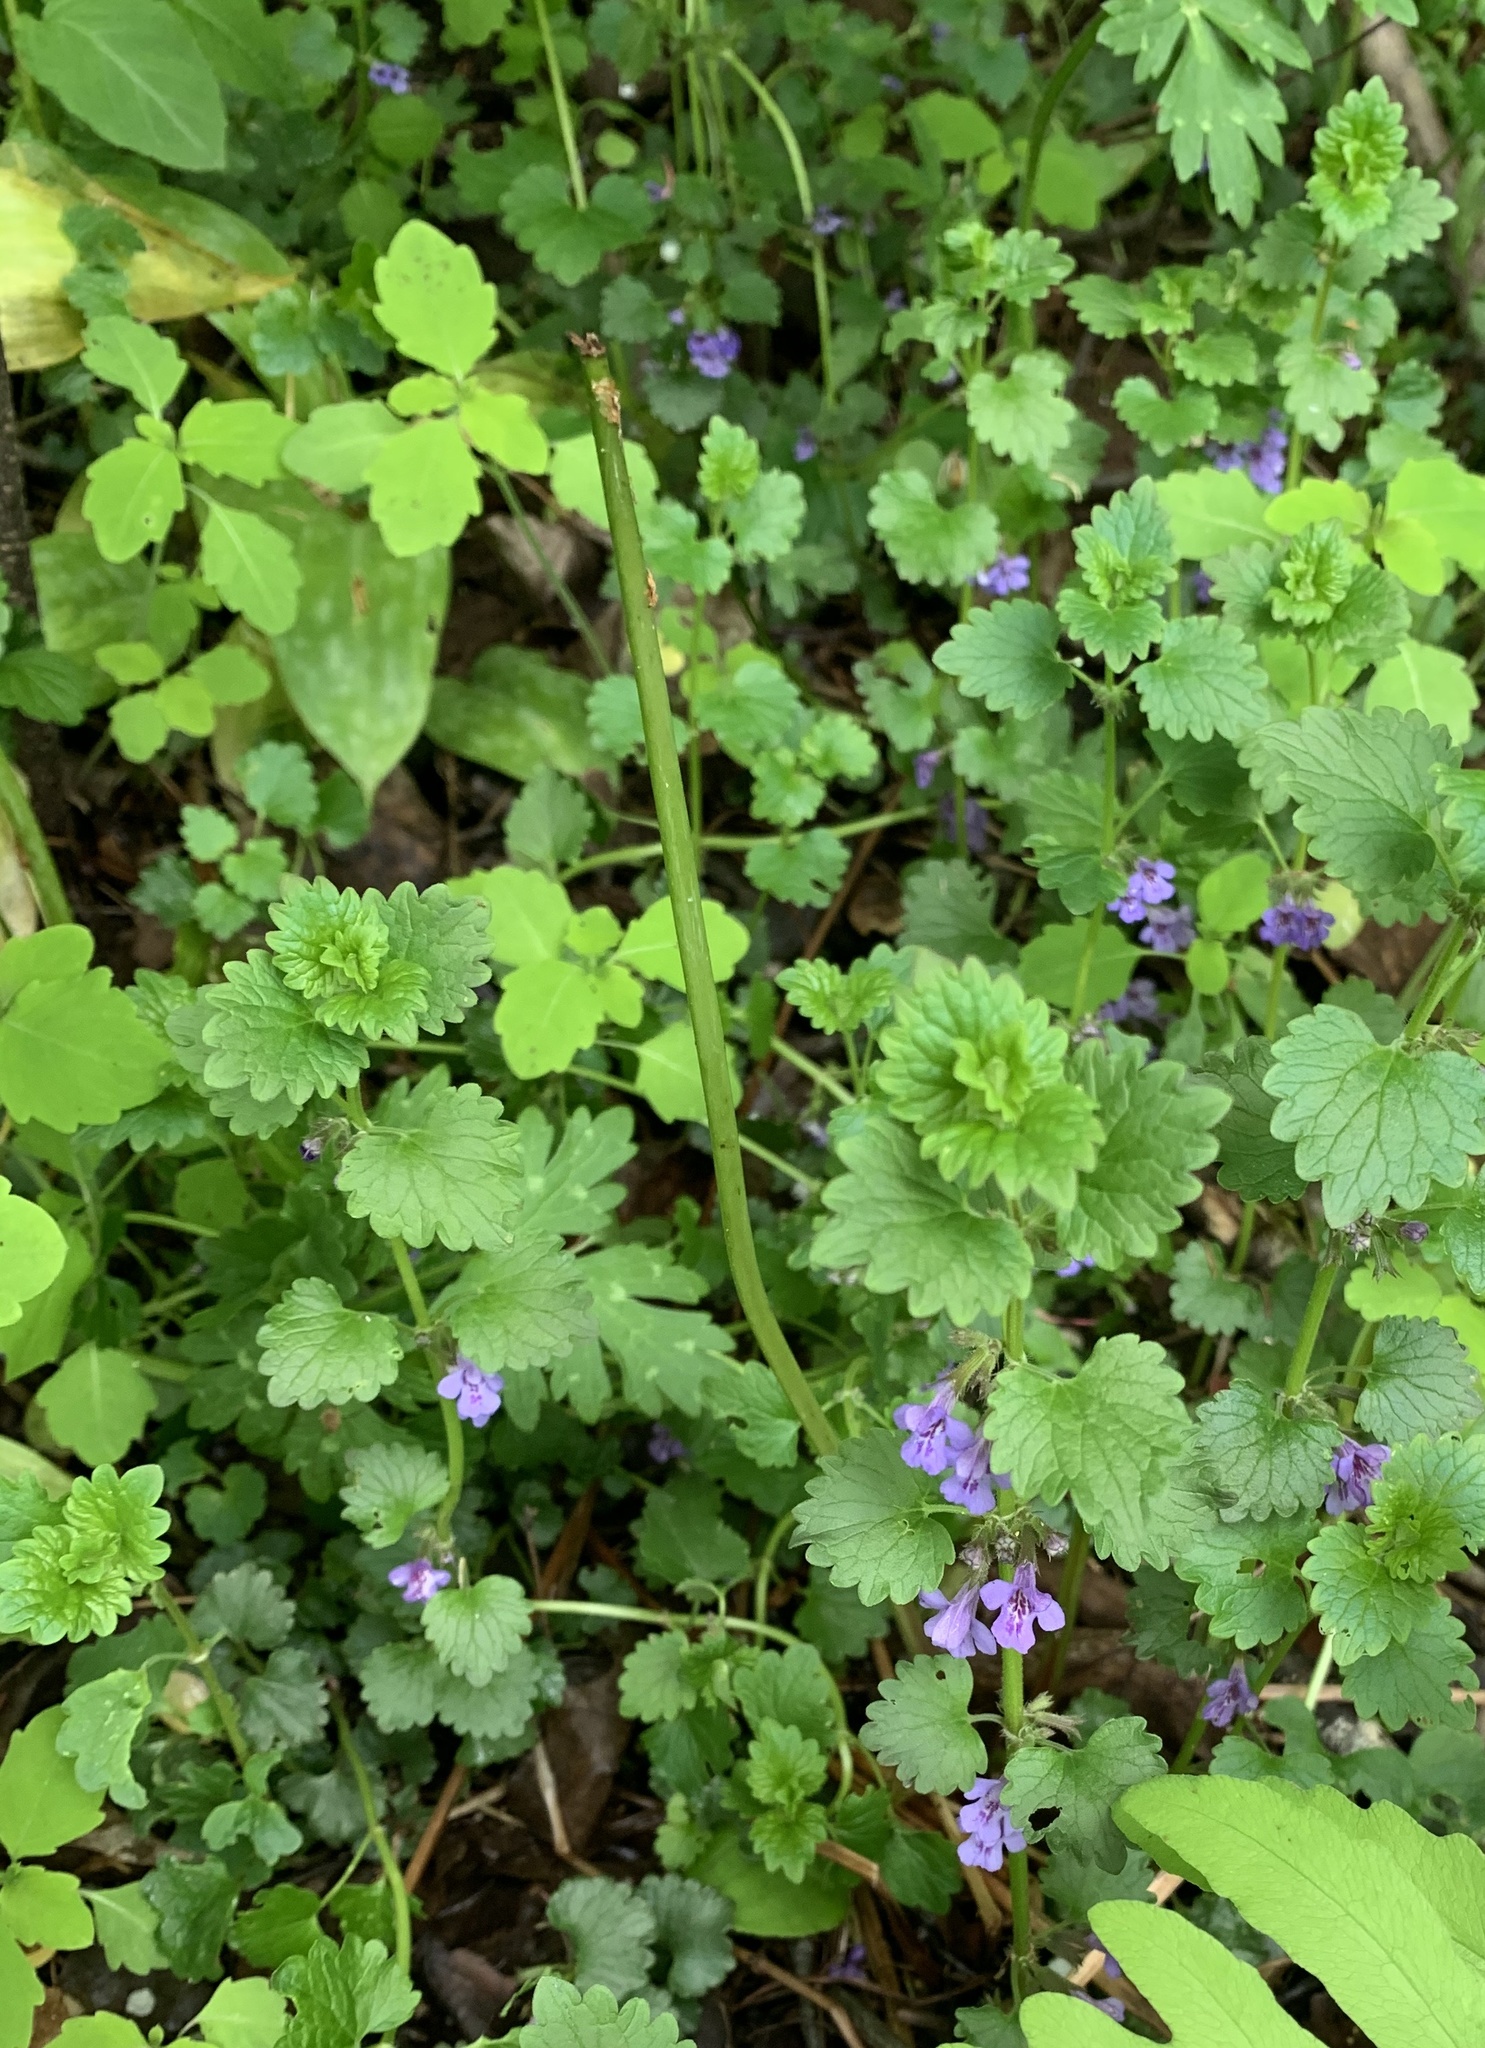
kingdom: Plantae
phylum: Tracheophyta
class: Magnoliopsida
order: Lamiales
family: Lamiaceae
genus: Glechoma
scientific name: Glechoma hederacea
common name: Ground ivy
